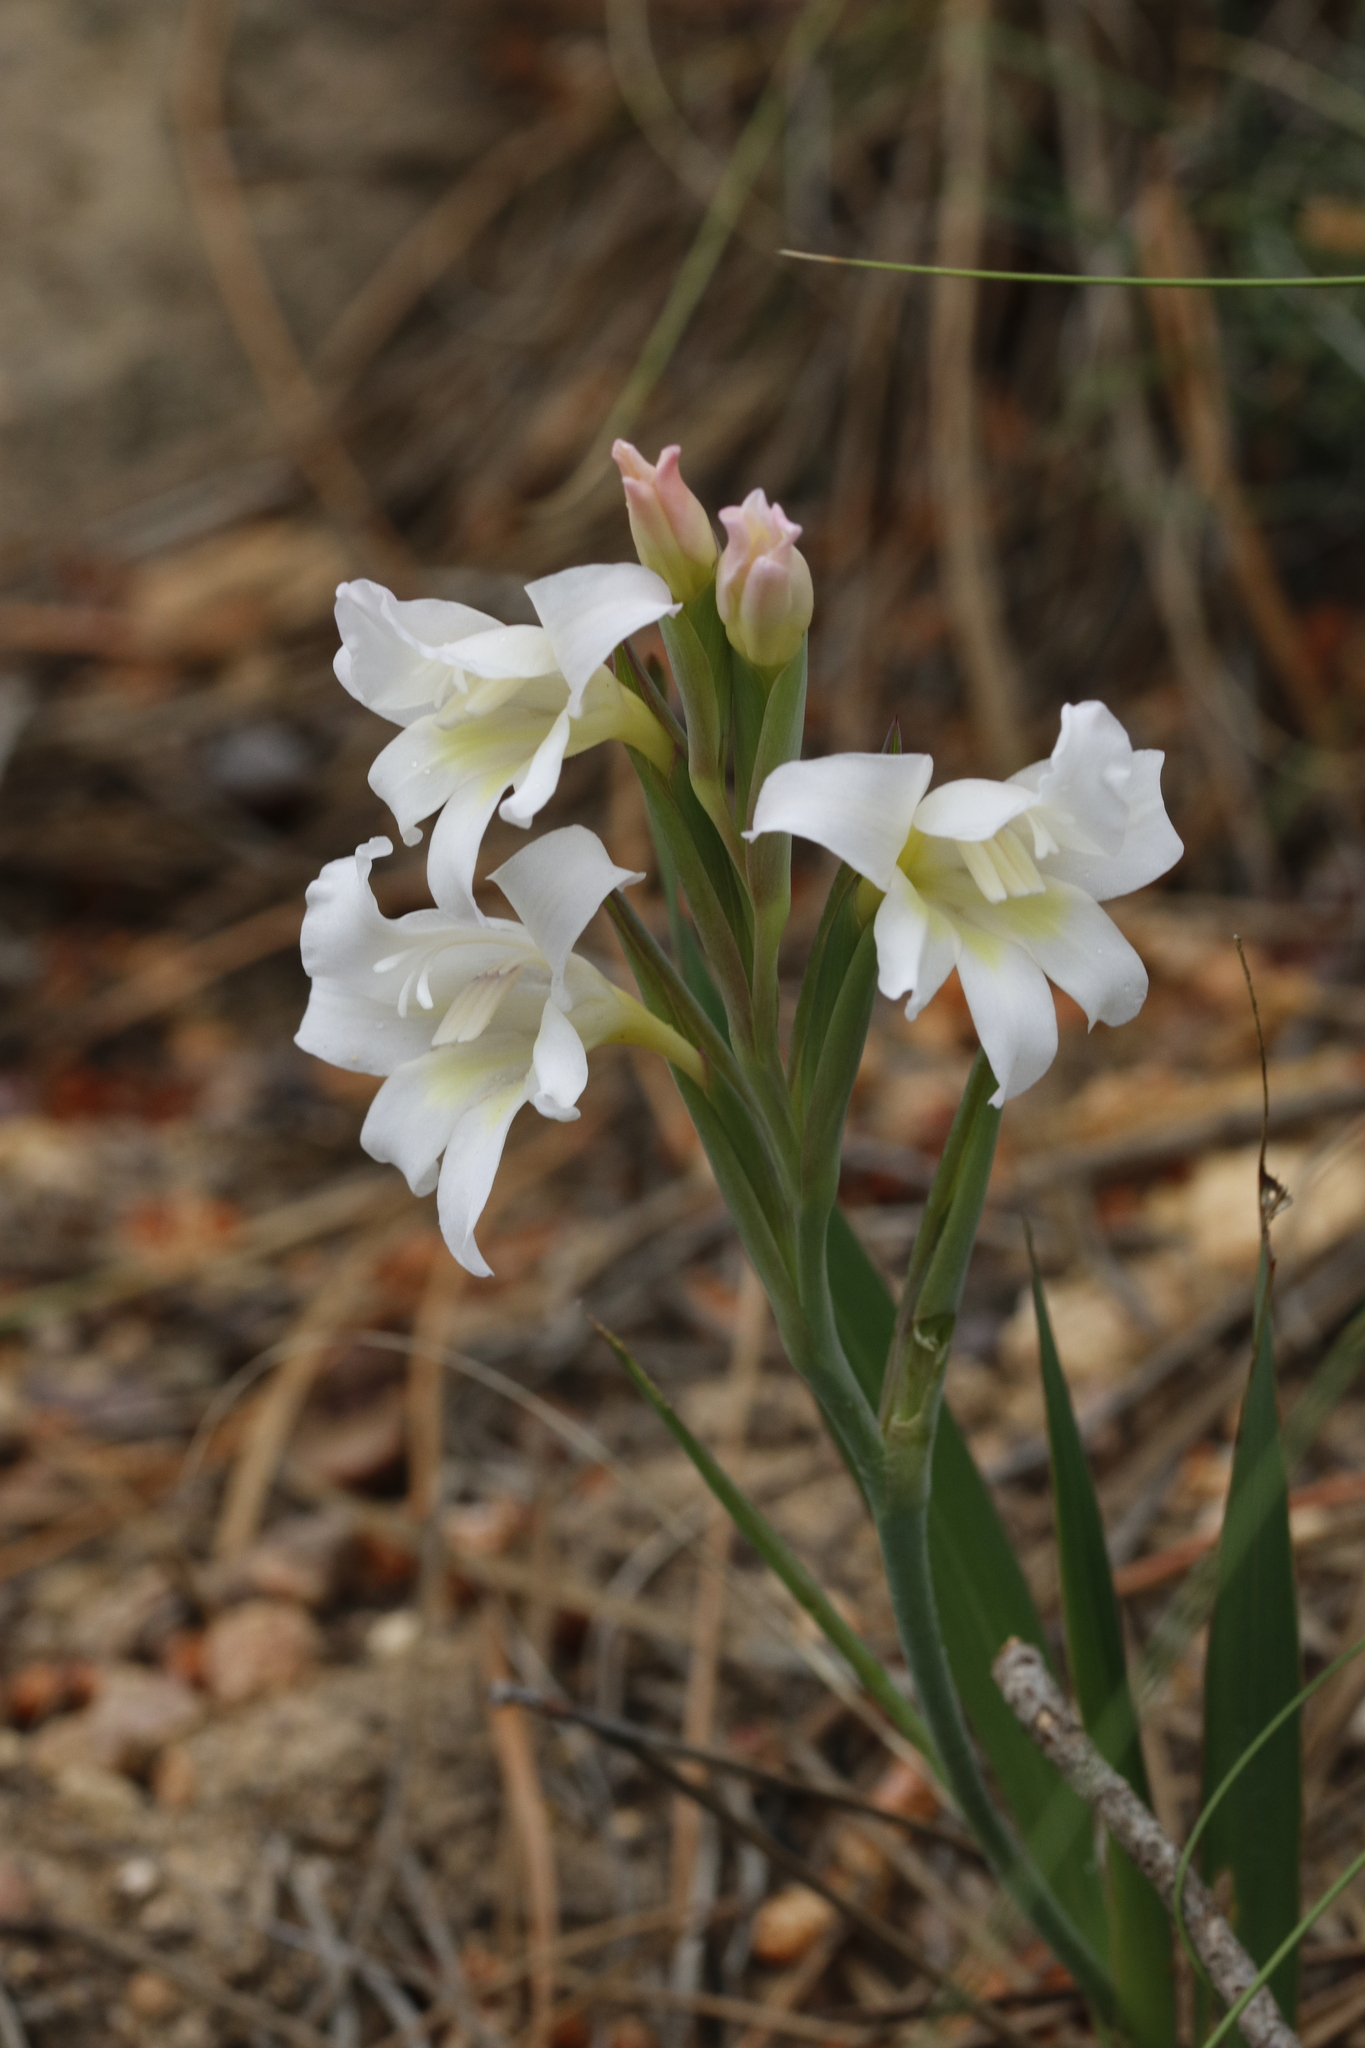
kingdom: Plantae
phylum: Tracheophyta
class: Liliopsida
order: Asparagales
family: Iridaceae
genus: Gladiolus
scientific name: Gladiolus carneus
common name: Painted-lady
